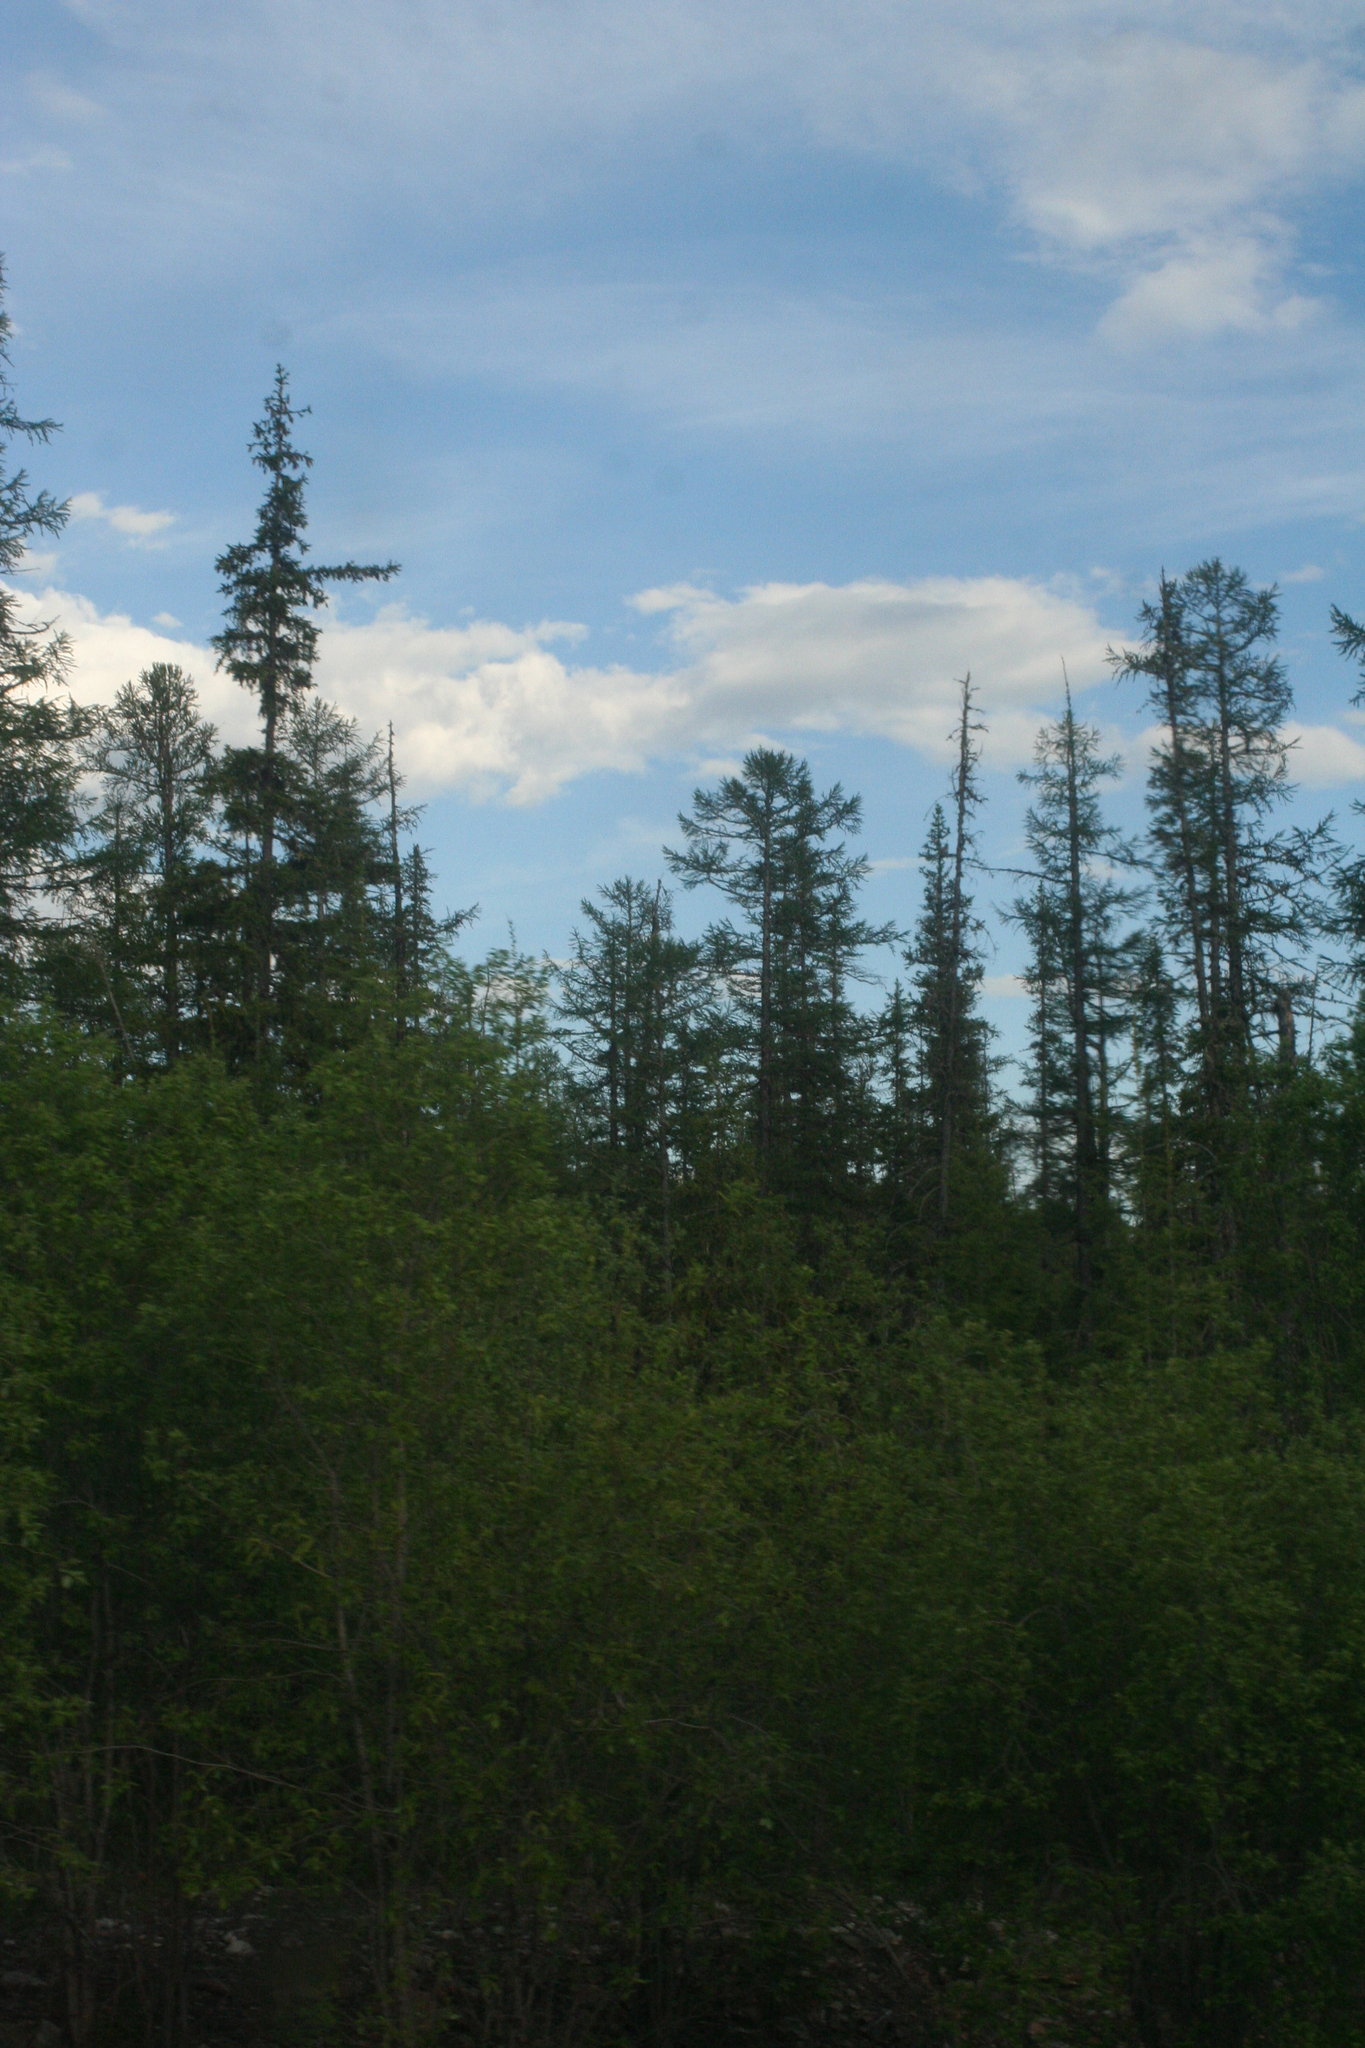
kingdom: Plantae
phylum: Tracheophyta
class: Pinopsida
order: Pinales
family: Pinaceae
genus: Larix
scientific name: Larix gmelinii
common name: Dahurian larch
